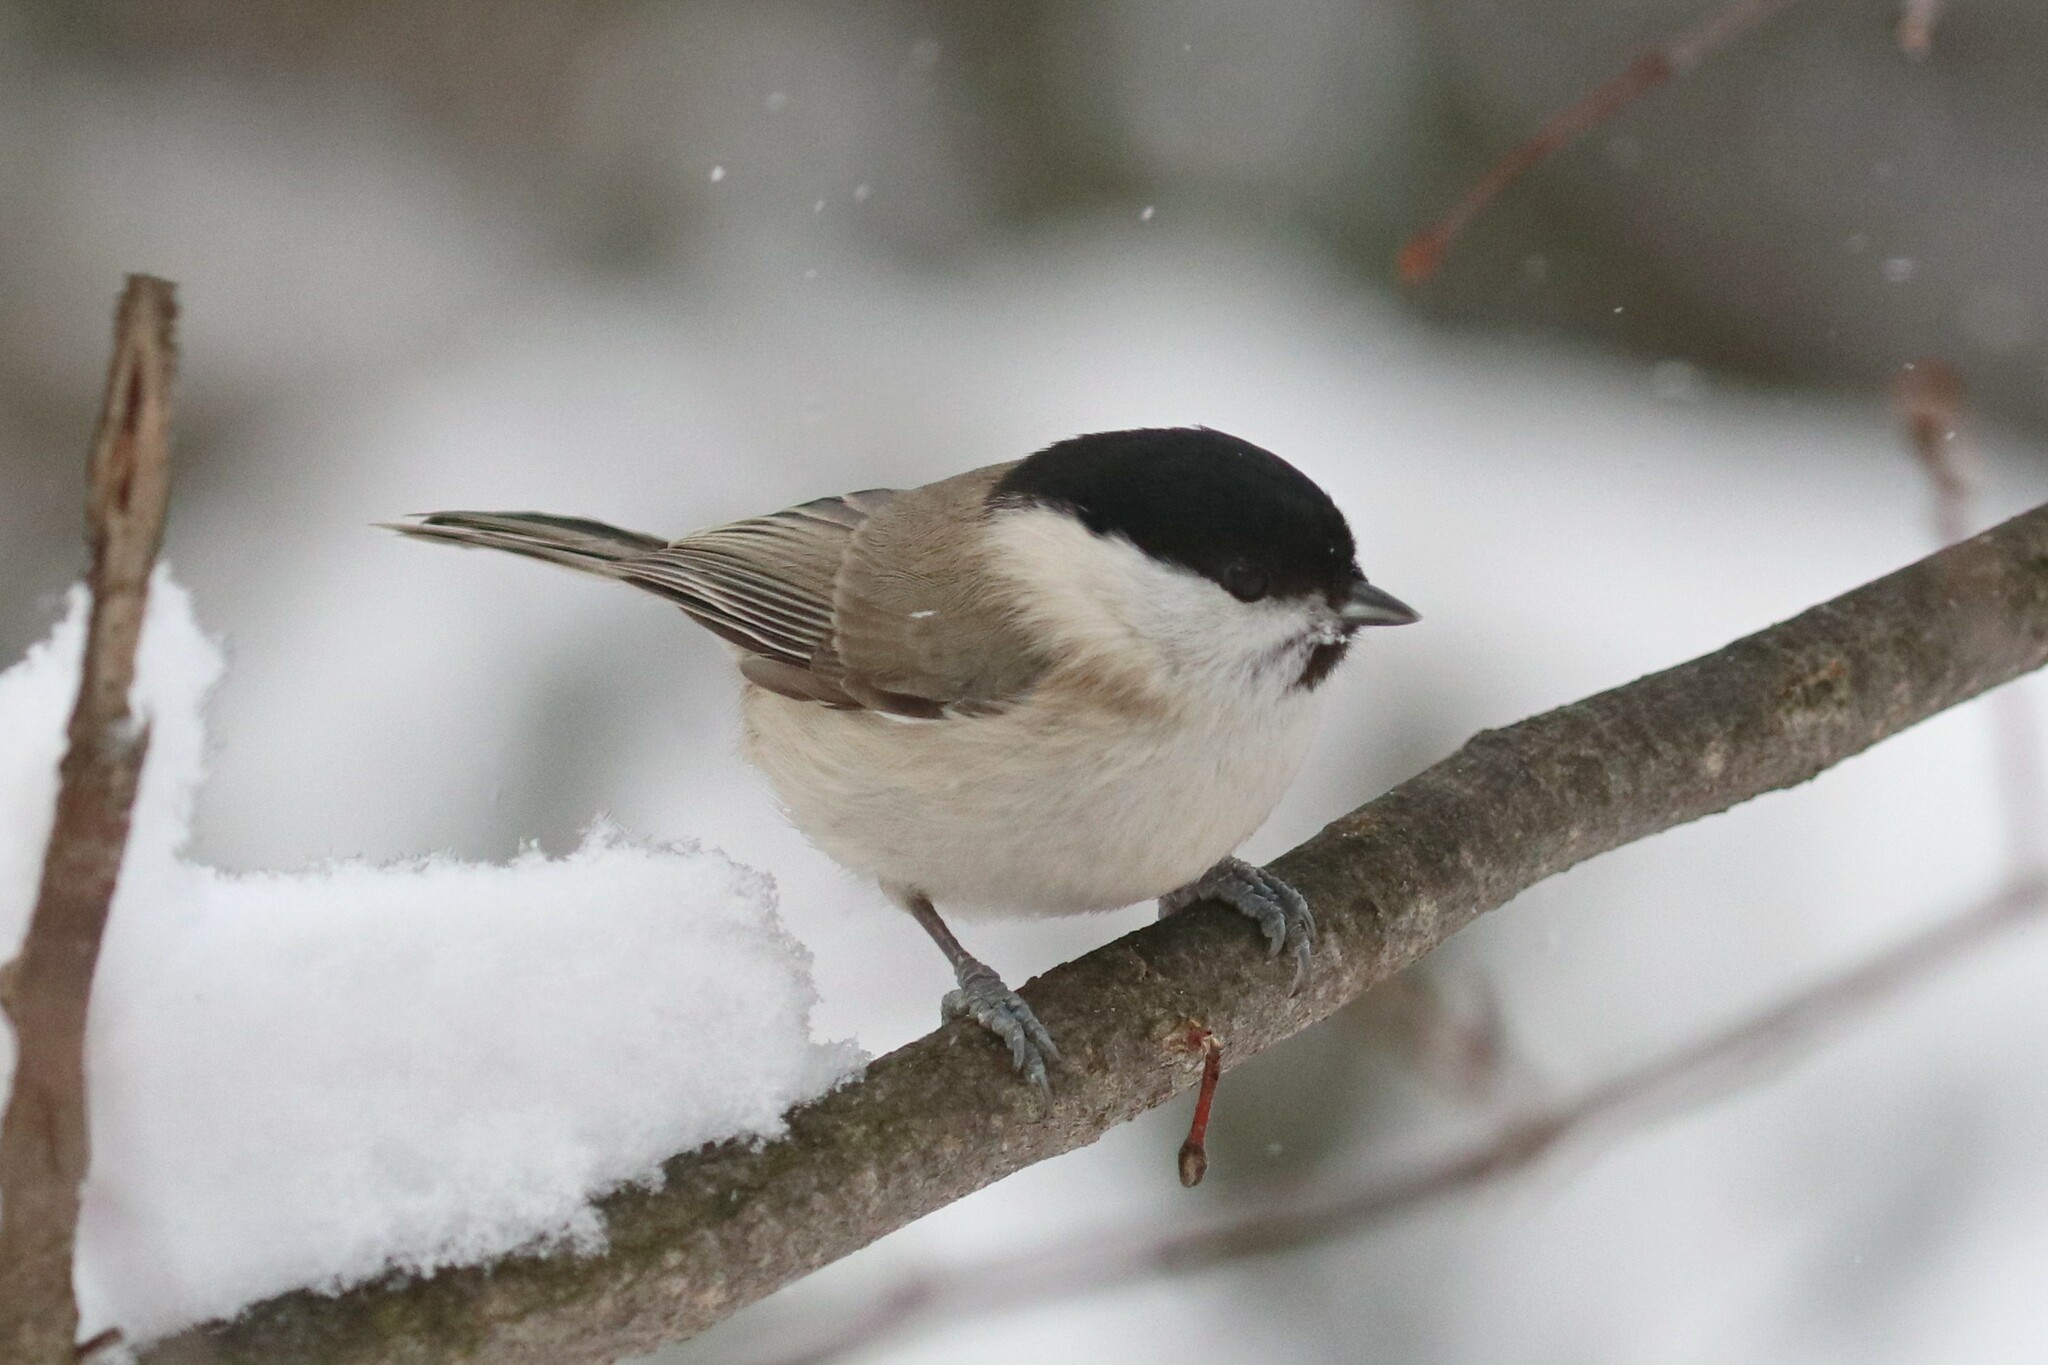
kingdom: Animalia
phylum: Chordata
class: Aves
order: Passeriformes
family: Paridae
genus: Poecile
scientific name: Poecile palustris
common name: Marsh tit
